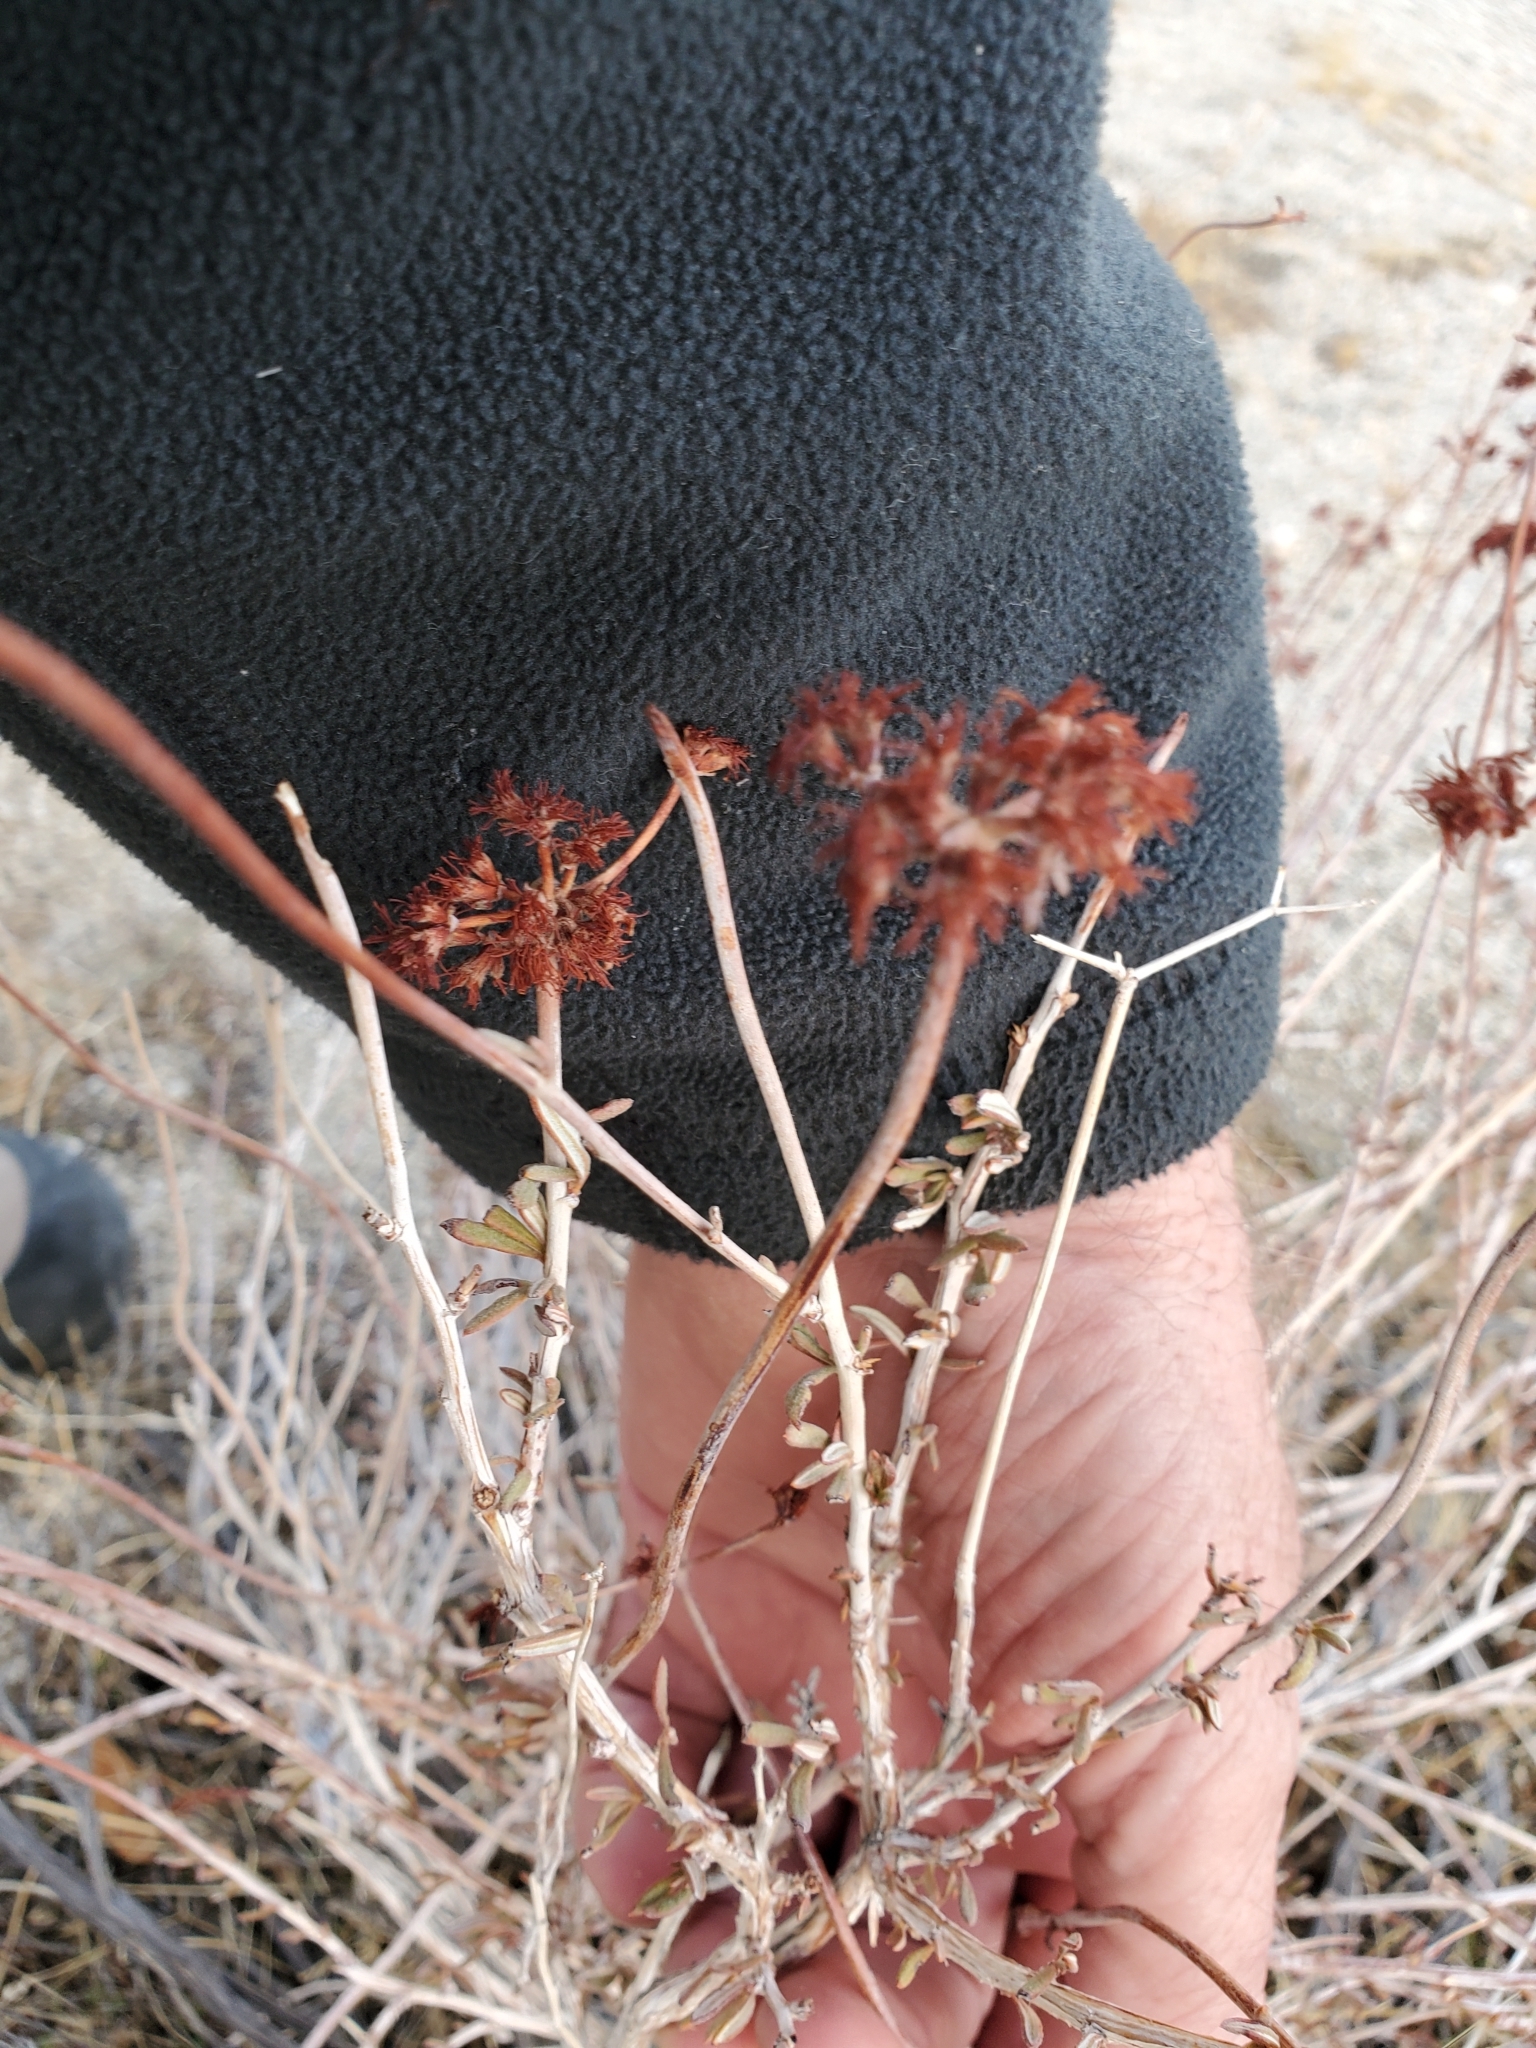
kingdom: Plantae
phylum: Tracheophyta
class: Magnoliopsida
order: Caryophyllales
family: Polygonaceae
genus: Eriogonum
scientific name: Eriogonum fasciculatum
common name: California wild buckwheat
